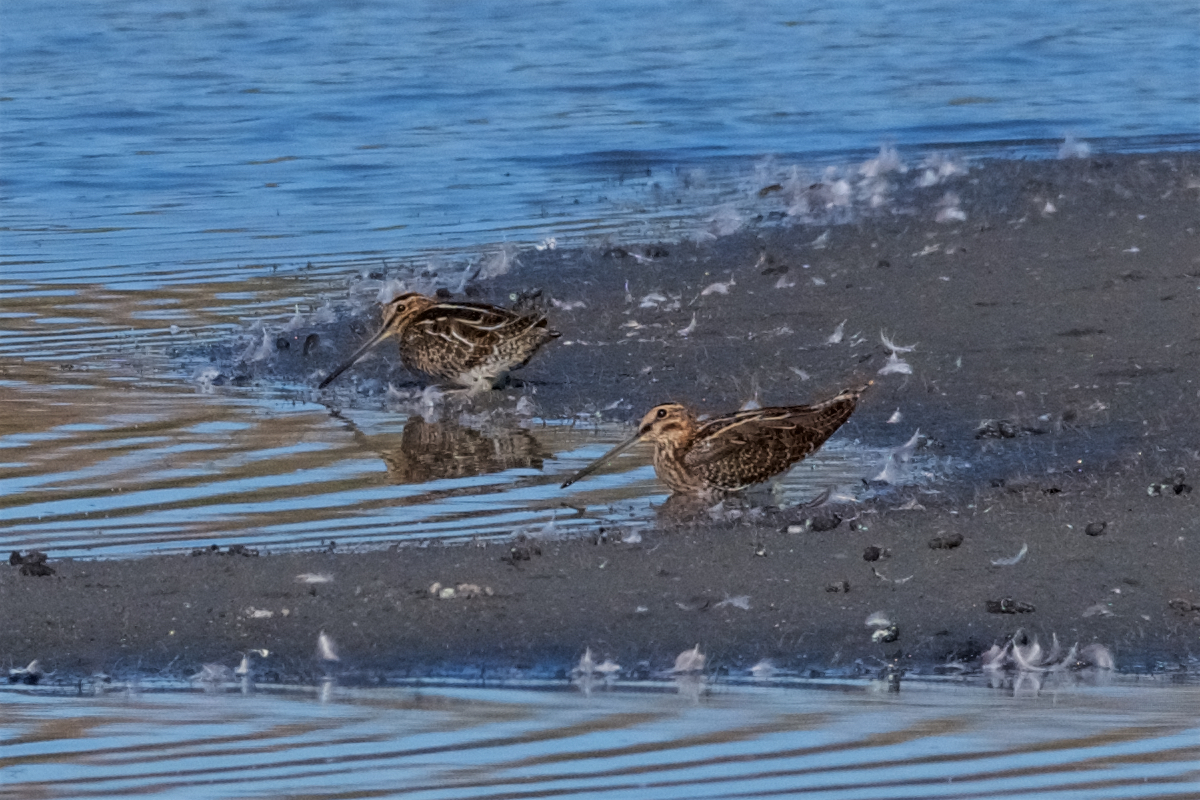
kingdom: Animalia
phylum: Chordata
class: Aves
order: Charadriiformes
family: Scolopacidae
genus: Gallinago
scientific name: Gallinago delicata
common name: Wilson's snipe
